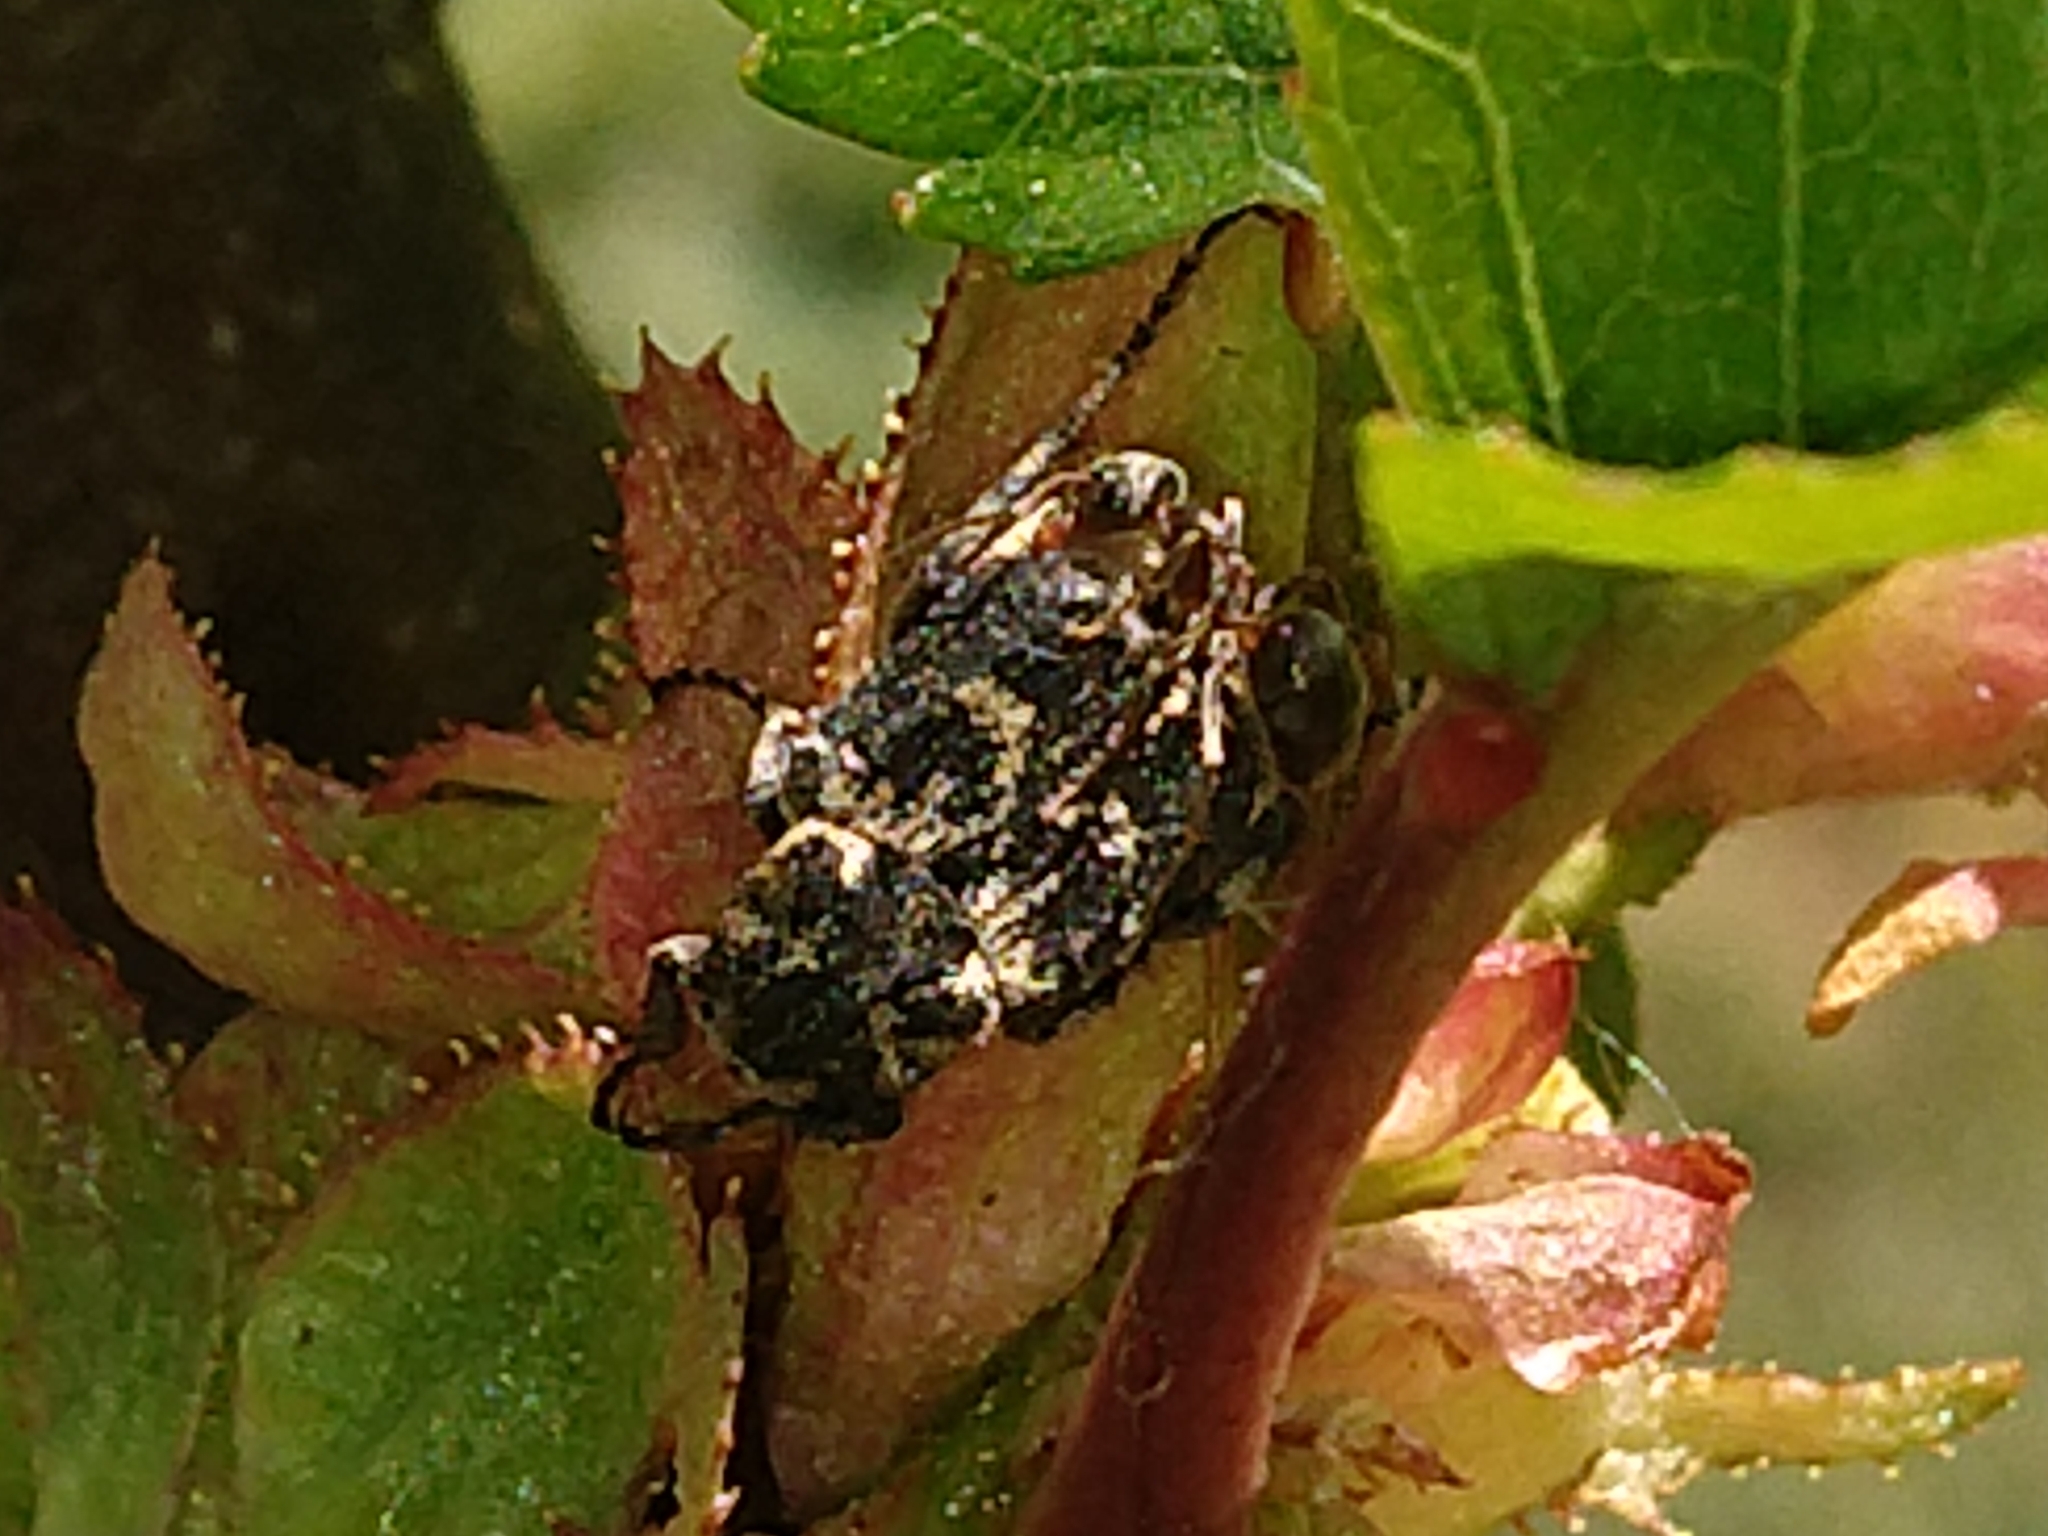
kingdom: Animalia
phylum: Arthropoda
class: Insecta
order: Coleoptera
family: Scarabaeidae
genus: Valgus
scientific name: Valgus hemipterus
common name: Bug flower chafer
